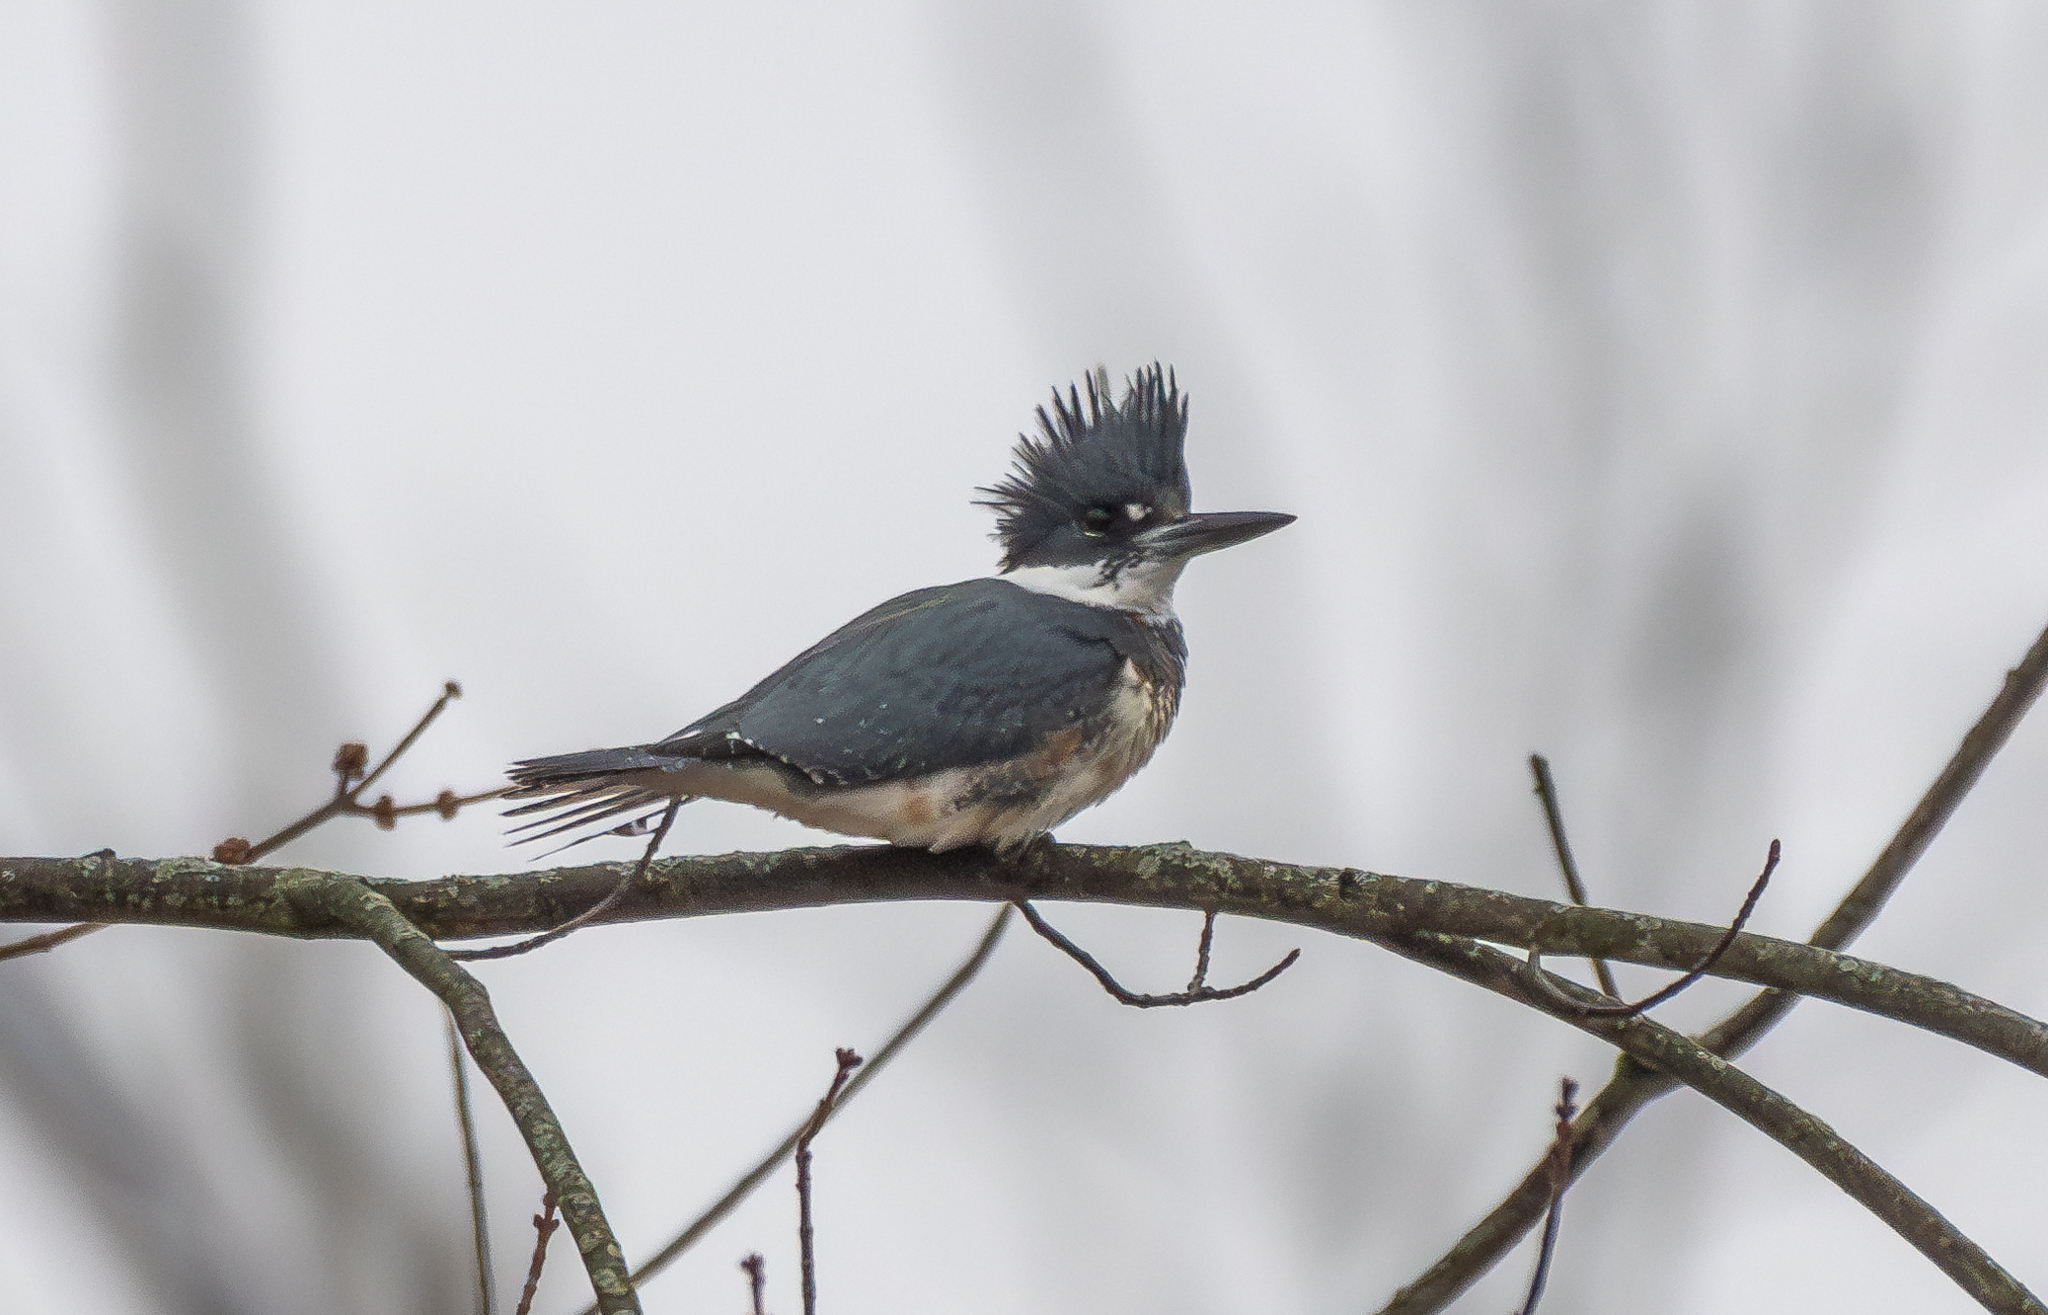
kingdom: Animalia
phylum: Chordata
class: Aves
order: Coraciiformes
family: Alcedinidae
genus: Megaceryle
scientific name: Megaceryle alcyon
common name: Belted kingfisher
